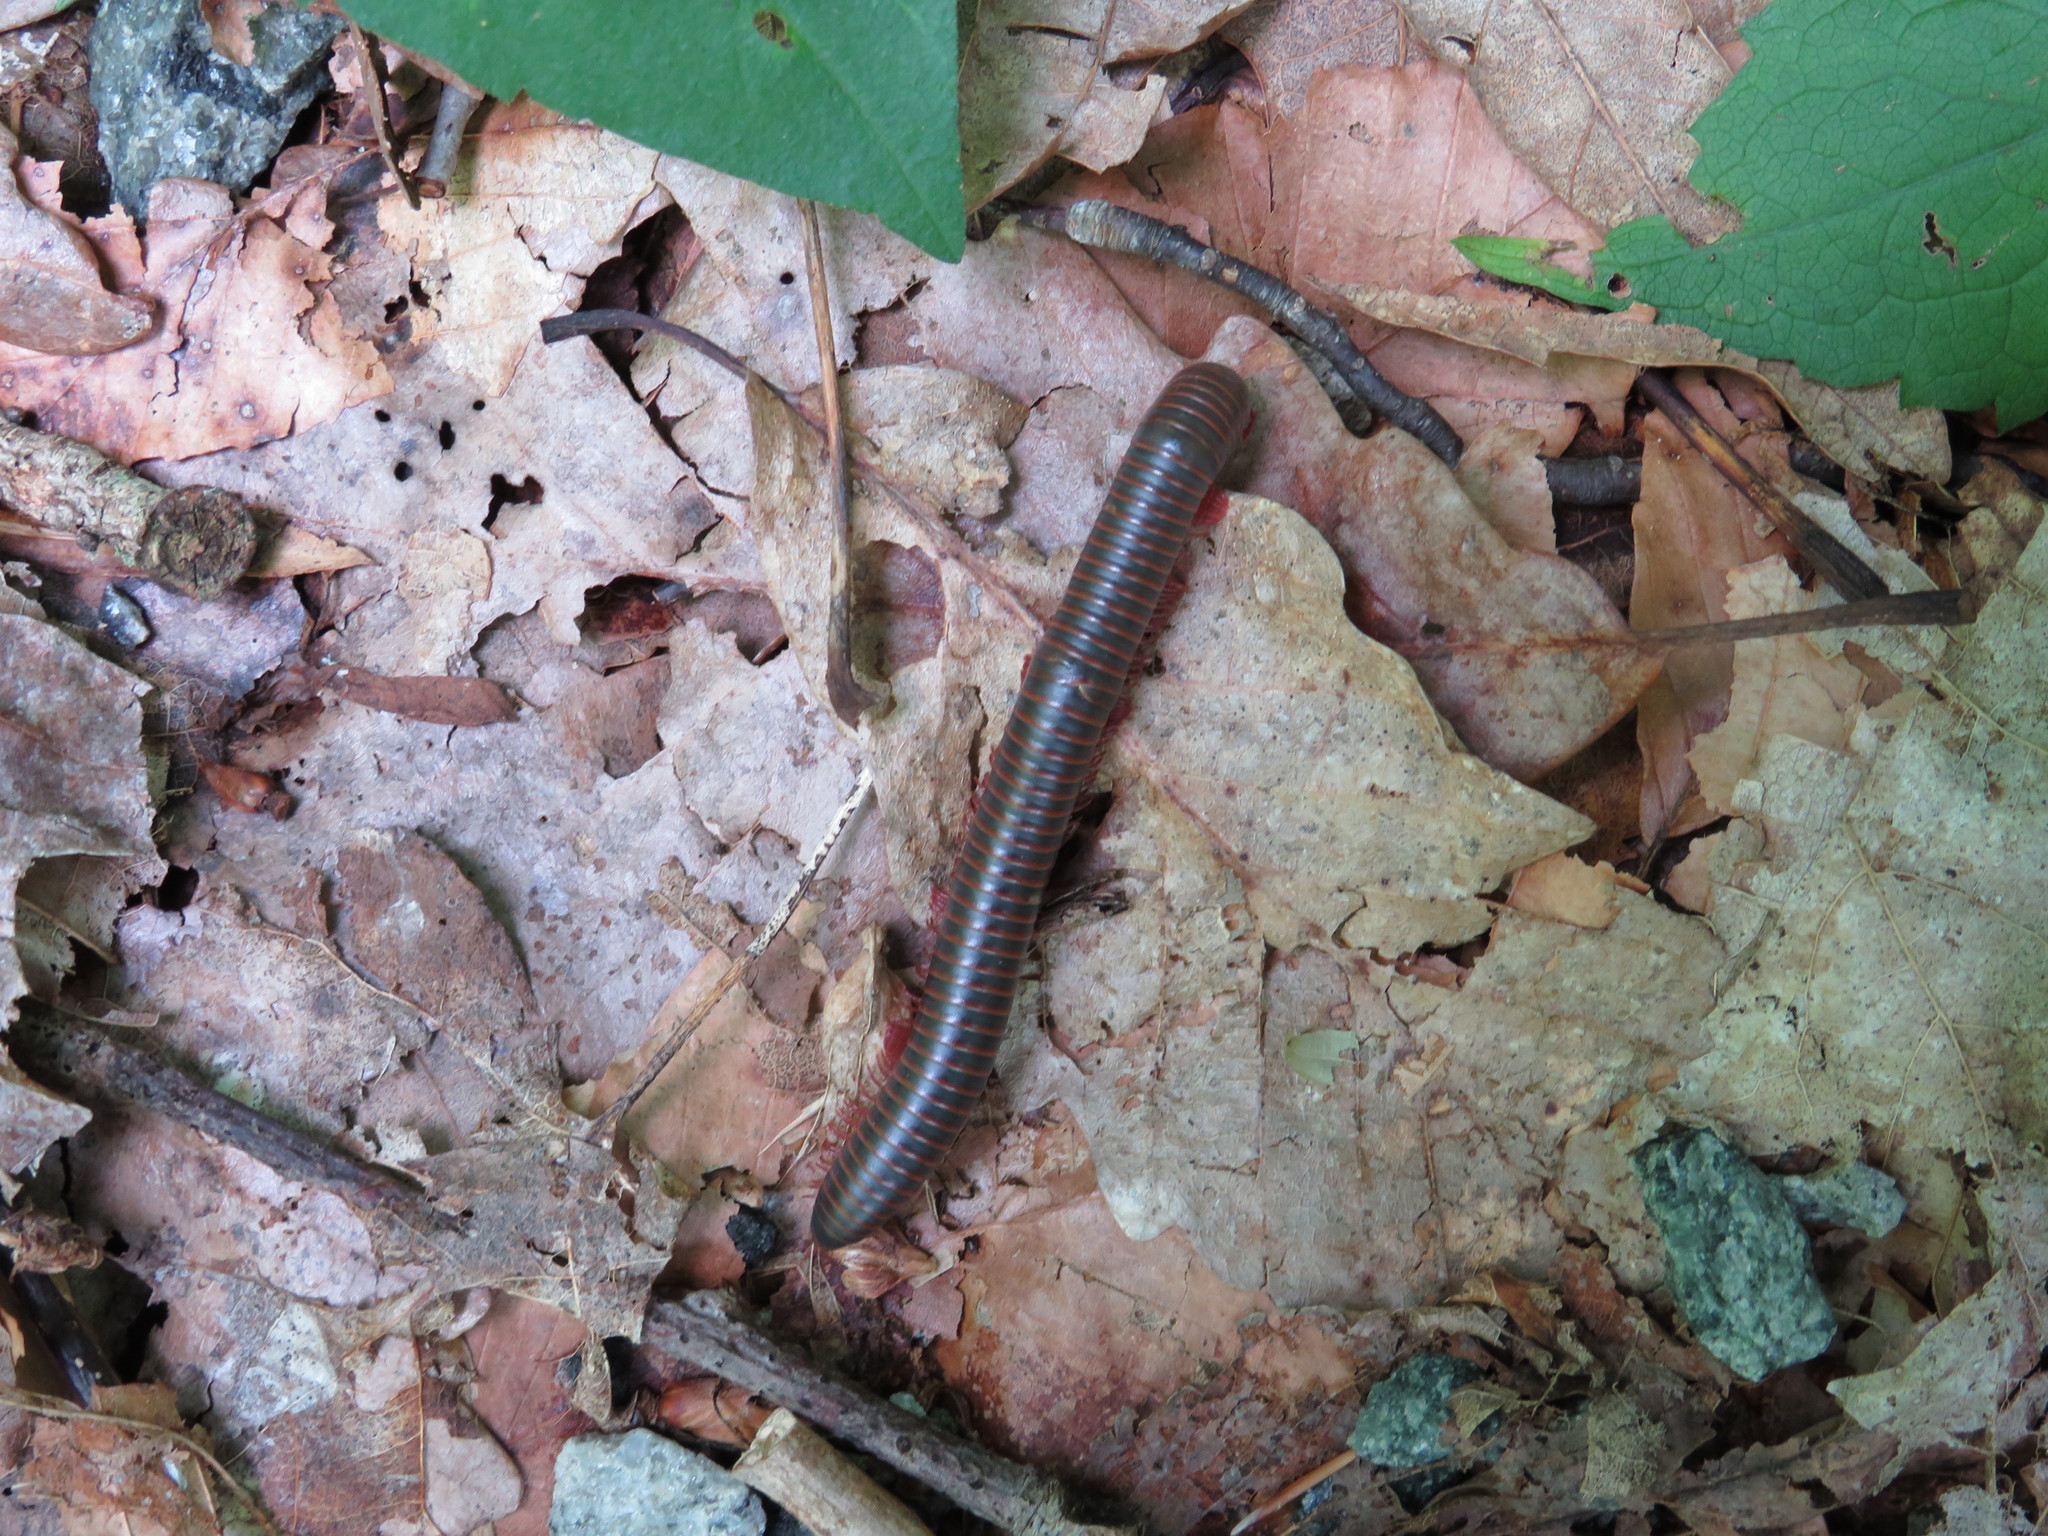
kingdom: Animalia
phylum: Arthropoda
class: Diplopoda
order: Spirobolida
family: Spirobolidae
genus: Narceus
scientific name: Narceus
